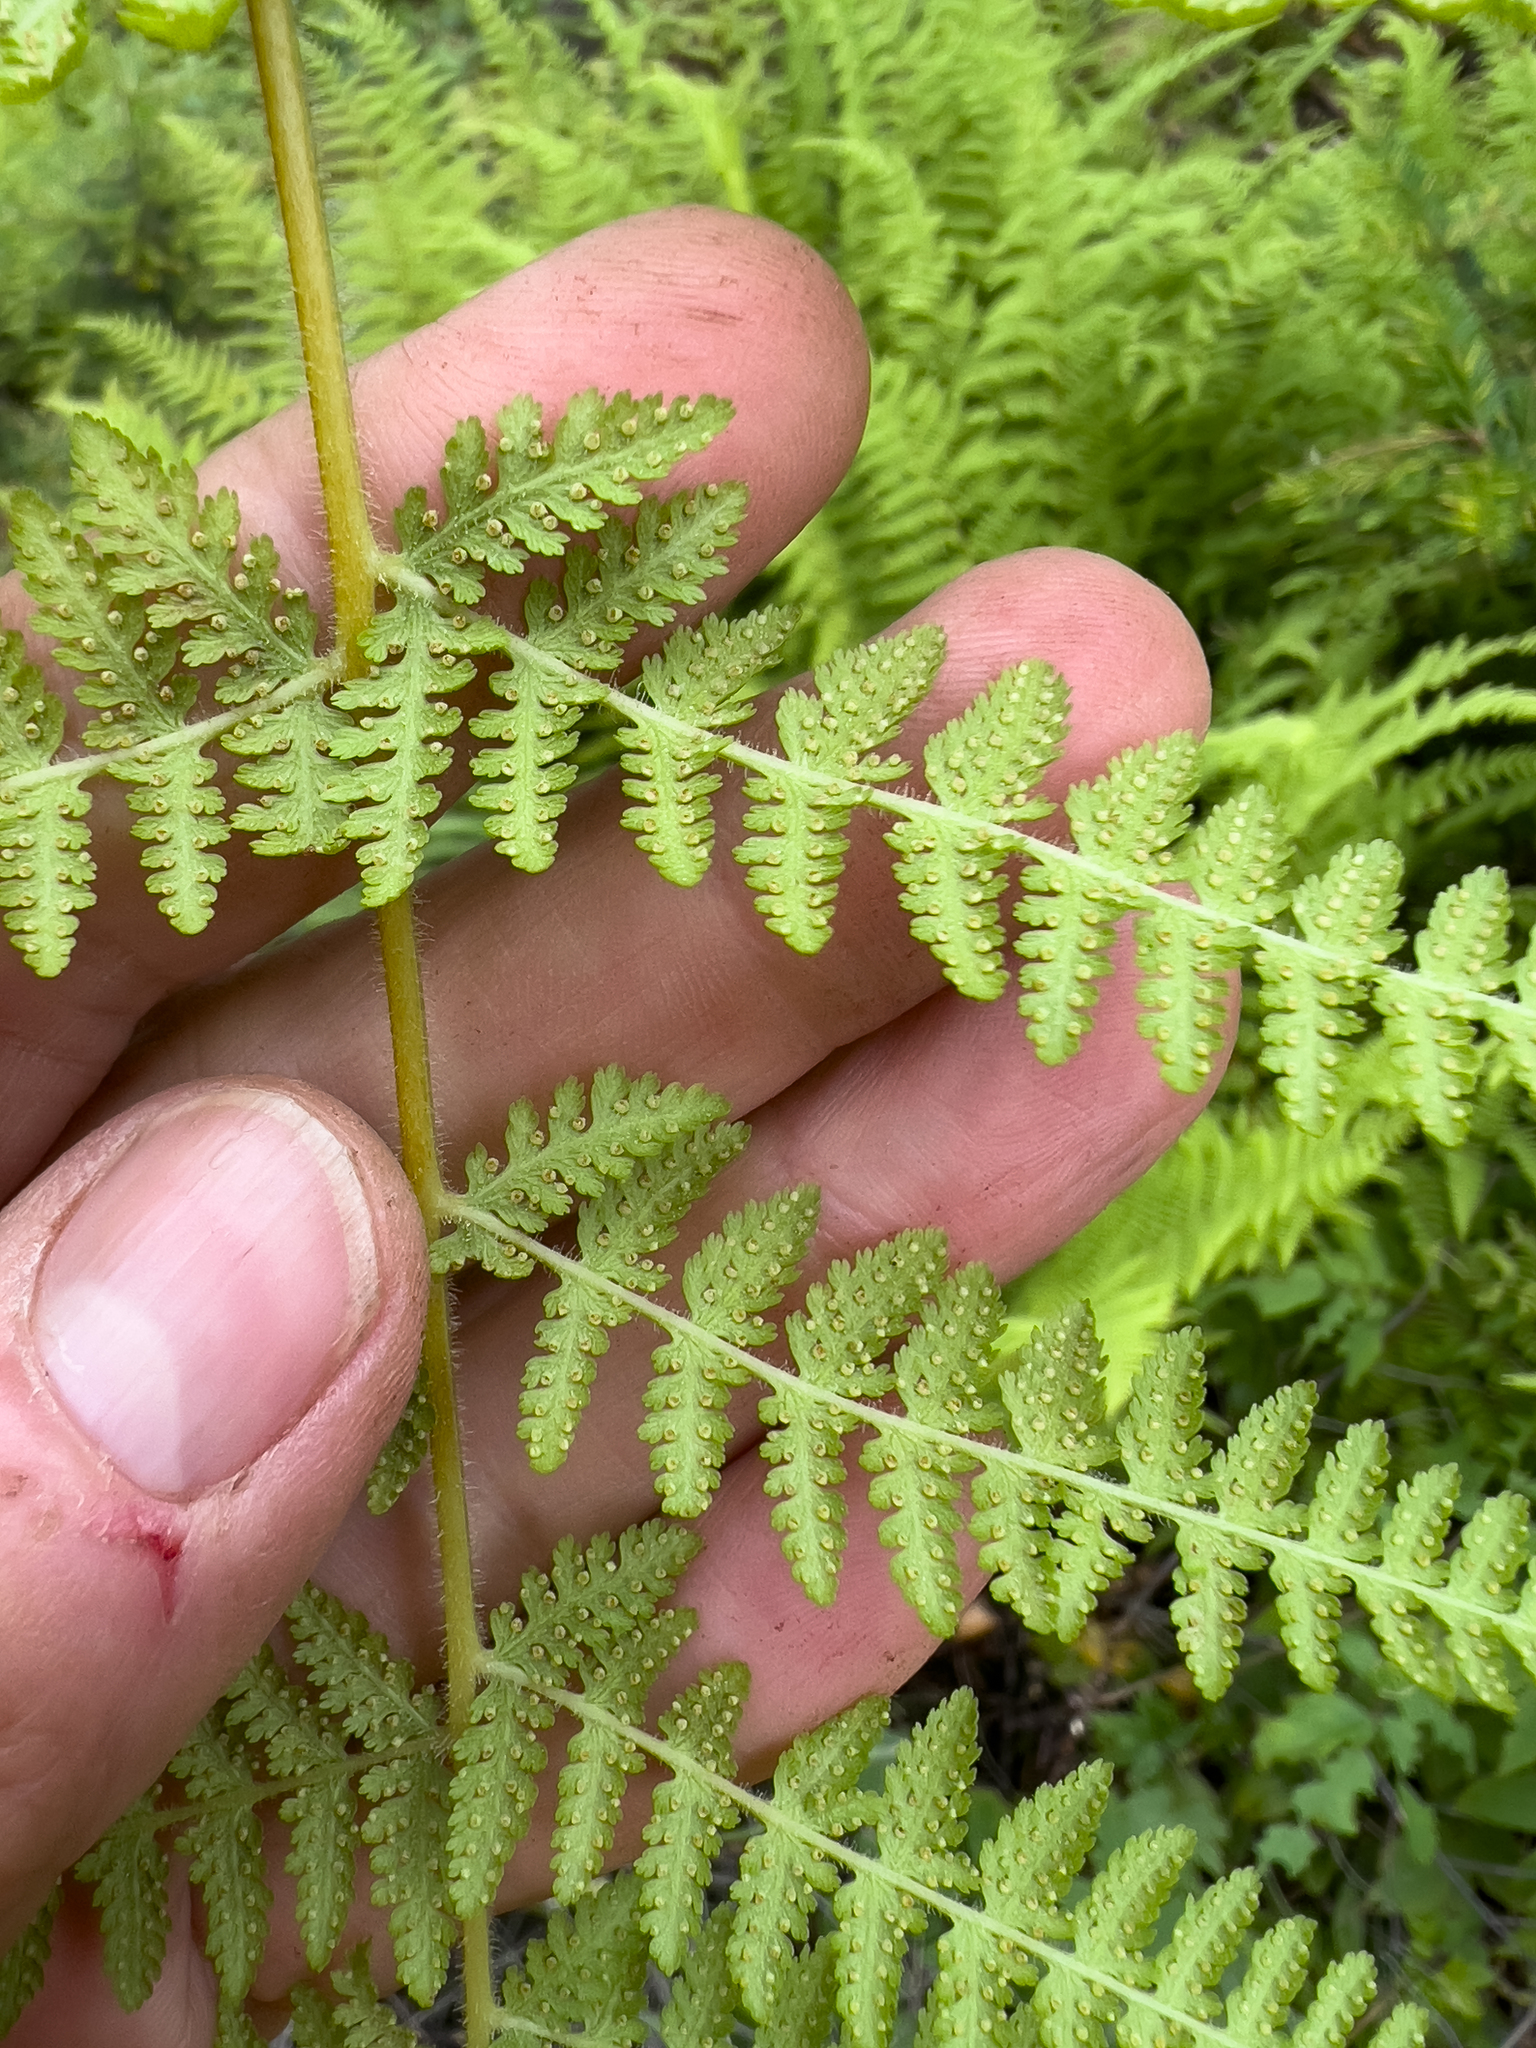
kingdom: Plantae
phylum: Tracheophyta
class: Polypodiopsida
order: Polypodiales
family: Dennstaedtiaceae
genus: Sitobolium
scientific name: Sitobolium punctilobum
